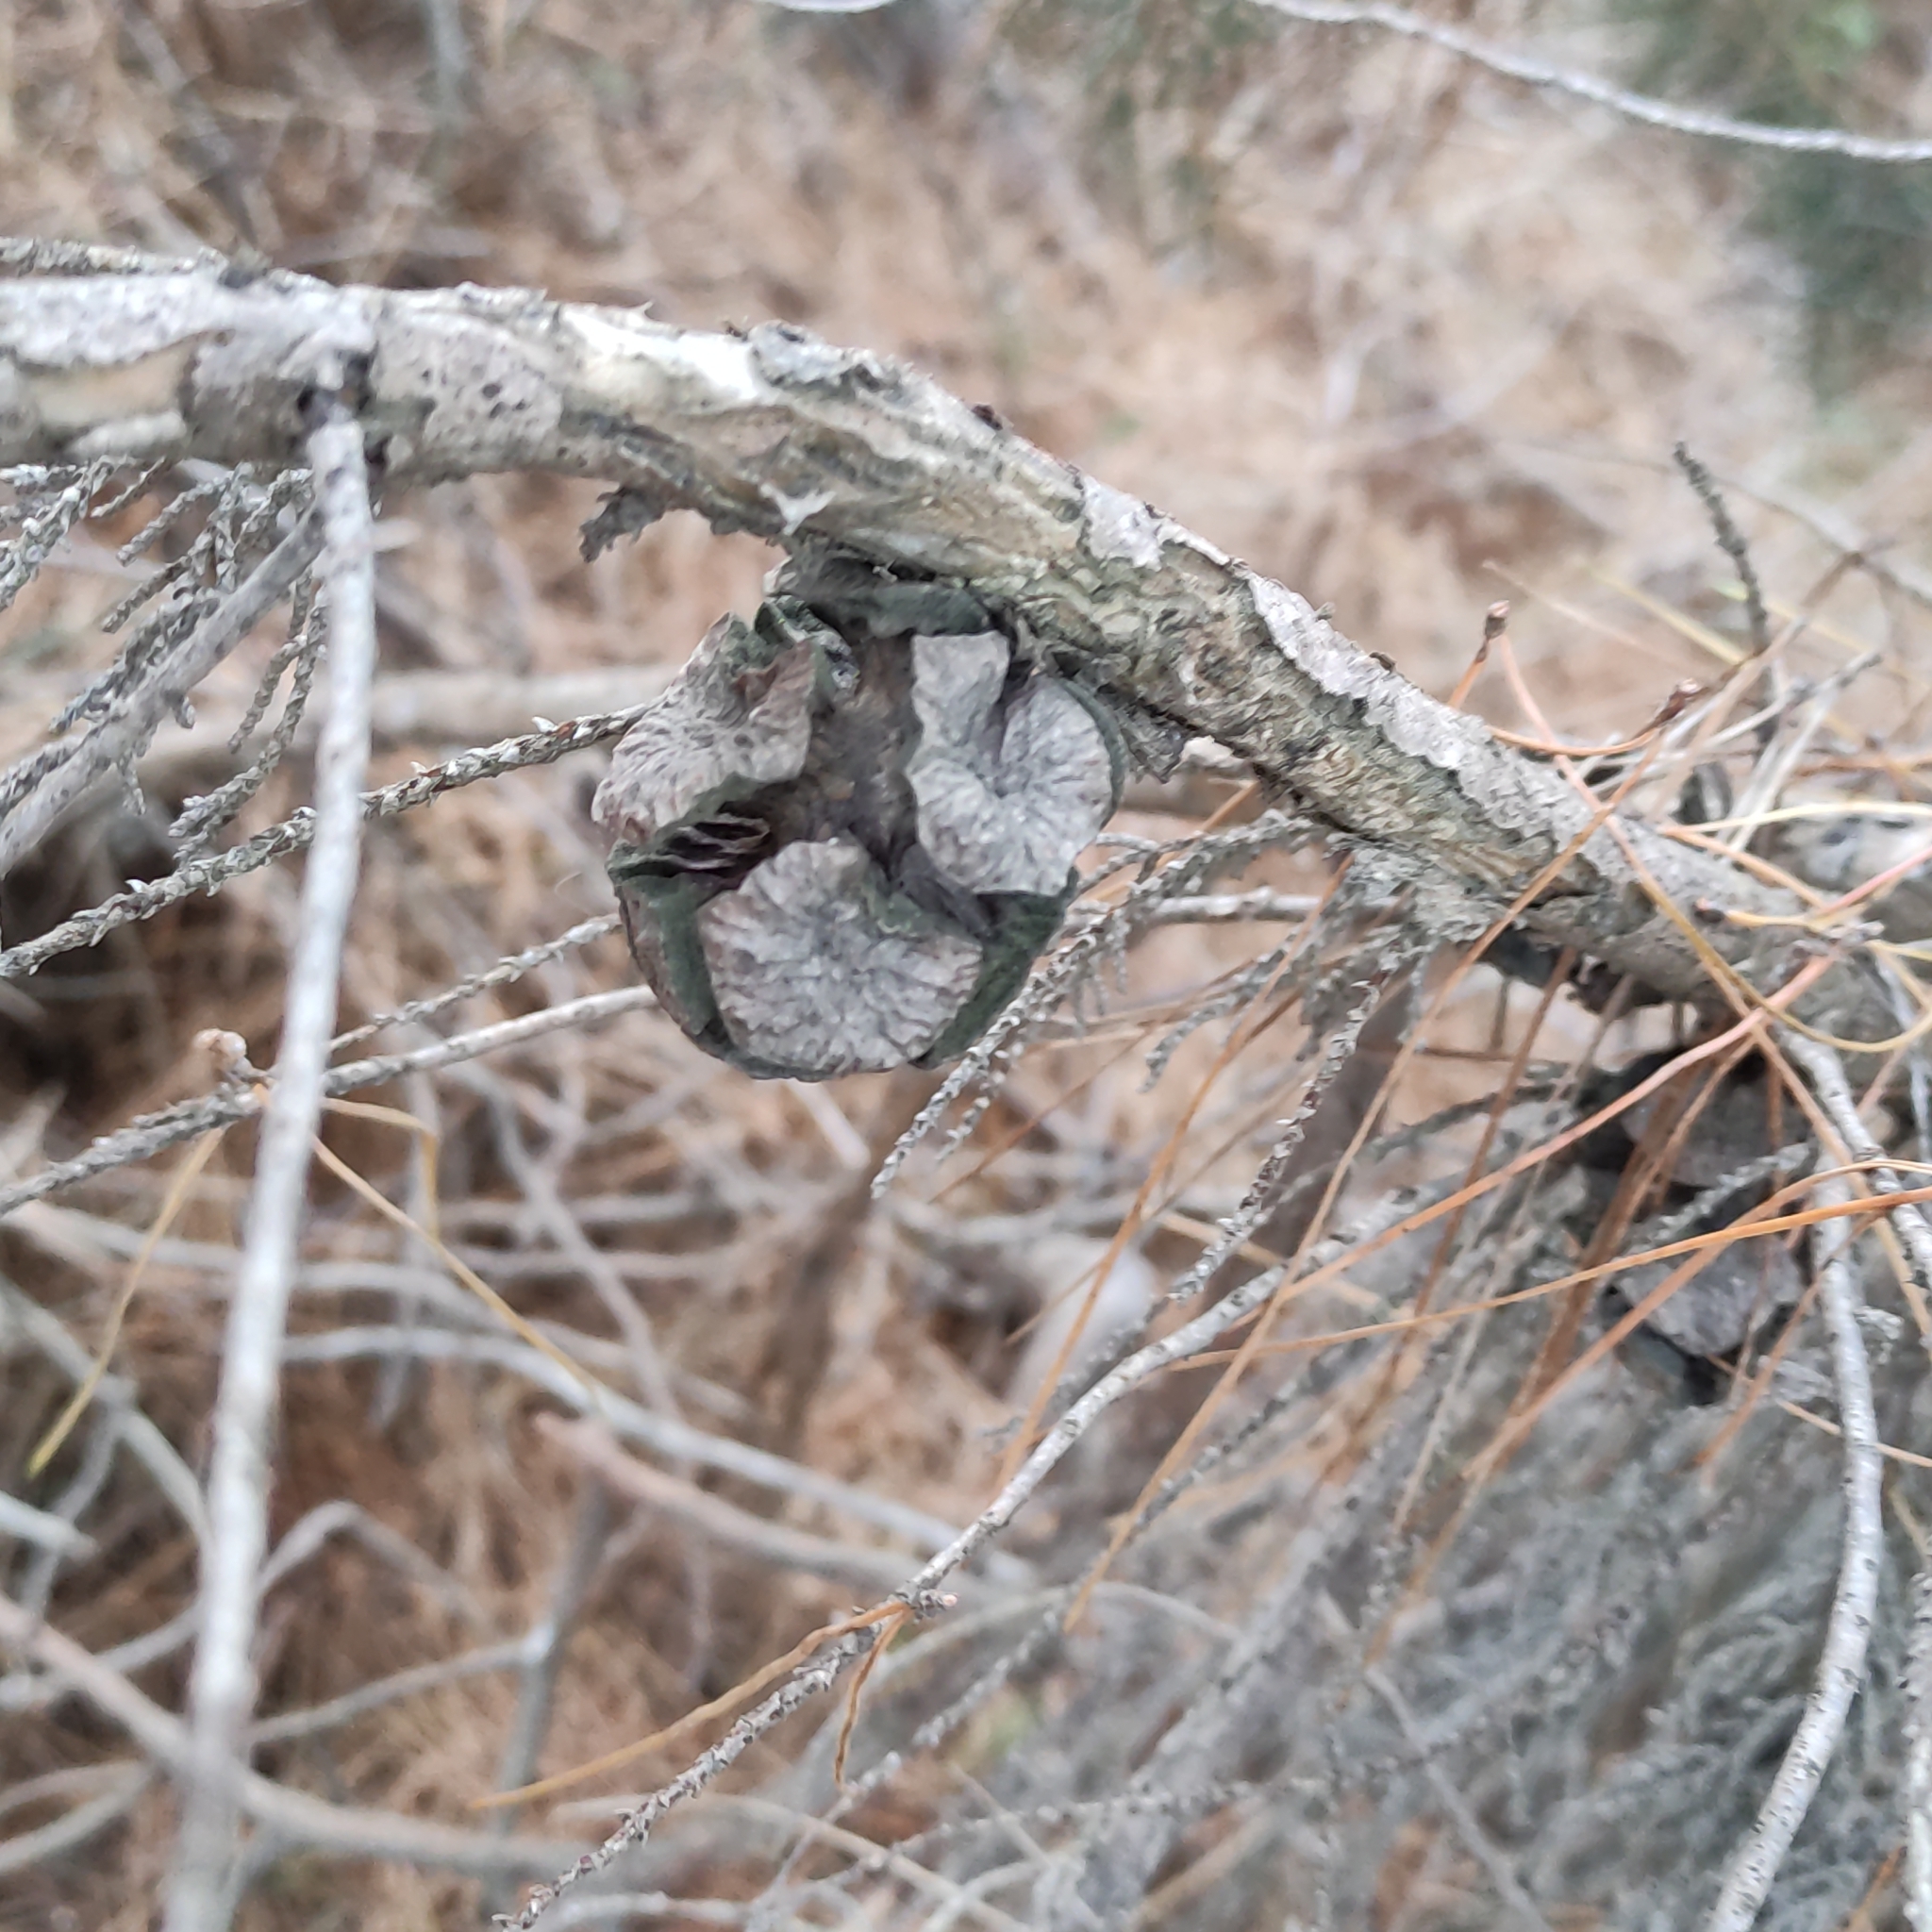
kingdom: Plantae
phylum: Tracheophyta
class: Pinopsida
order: Pinales
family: Cupressaceae
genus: Cupressus
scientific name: Cupressus macrocarpa
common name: Monterey cypress
